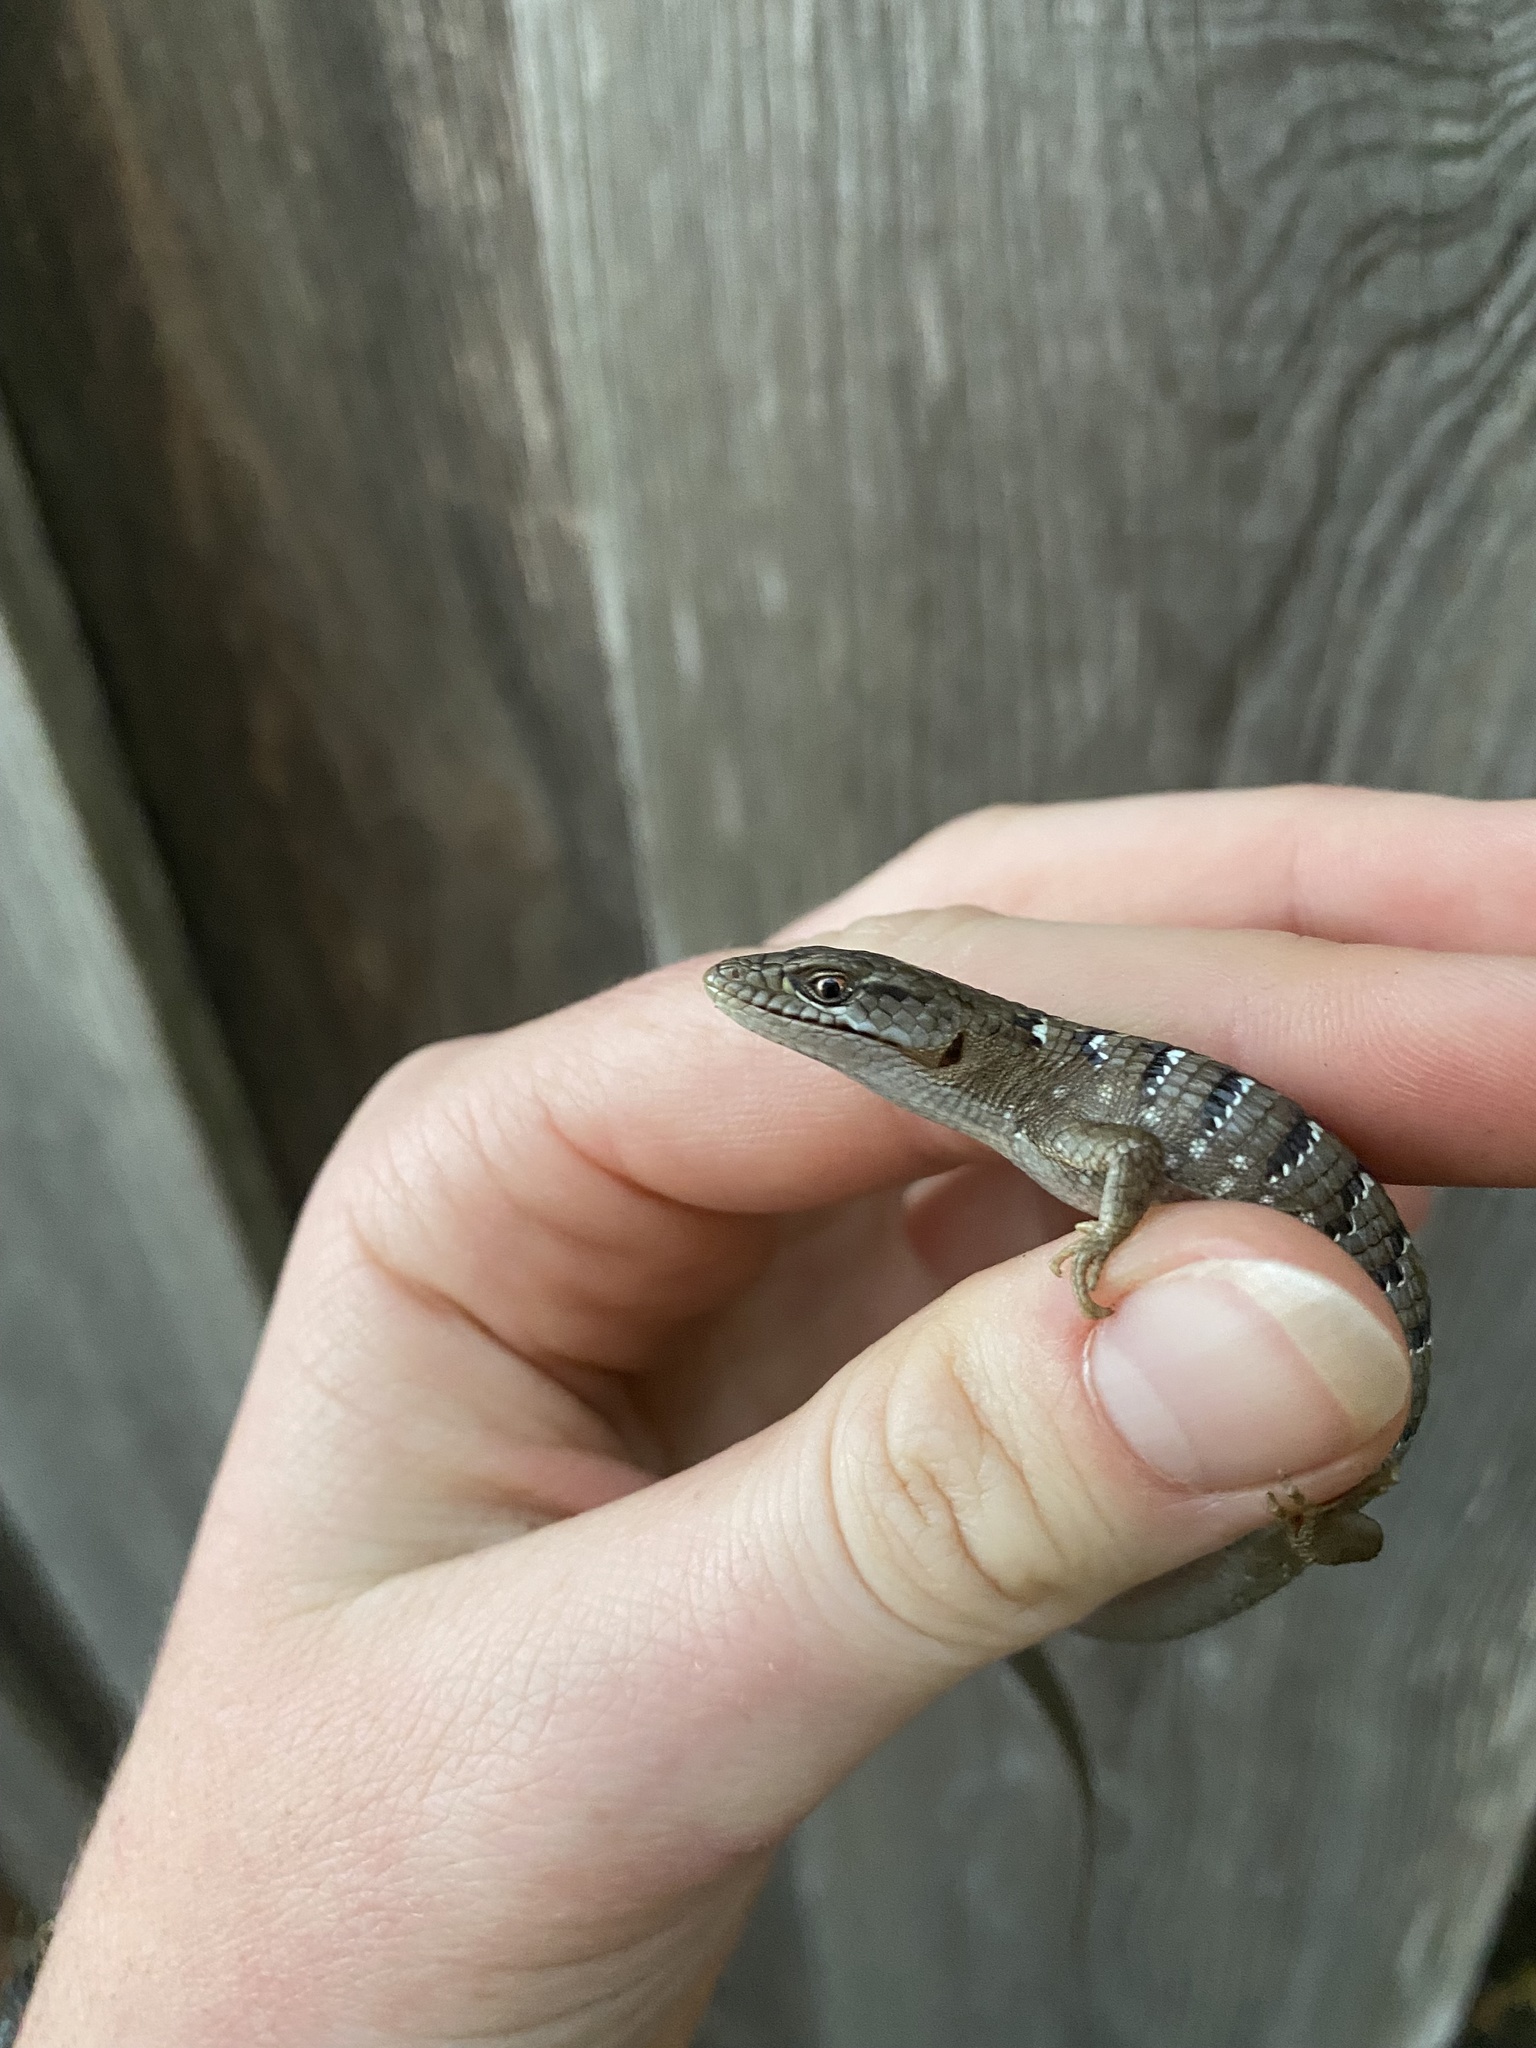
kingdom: Animalia
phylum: Chordata
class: Squamata
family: Anguidae
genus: Elgaria
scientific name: Elgaria multicarinata
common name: Southern alligator lizard
